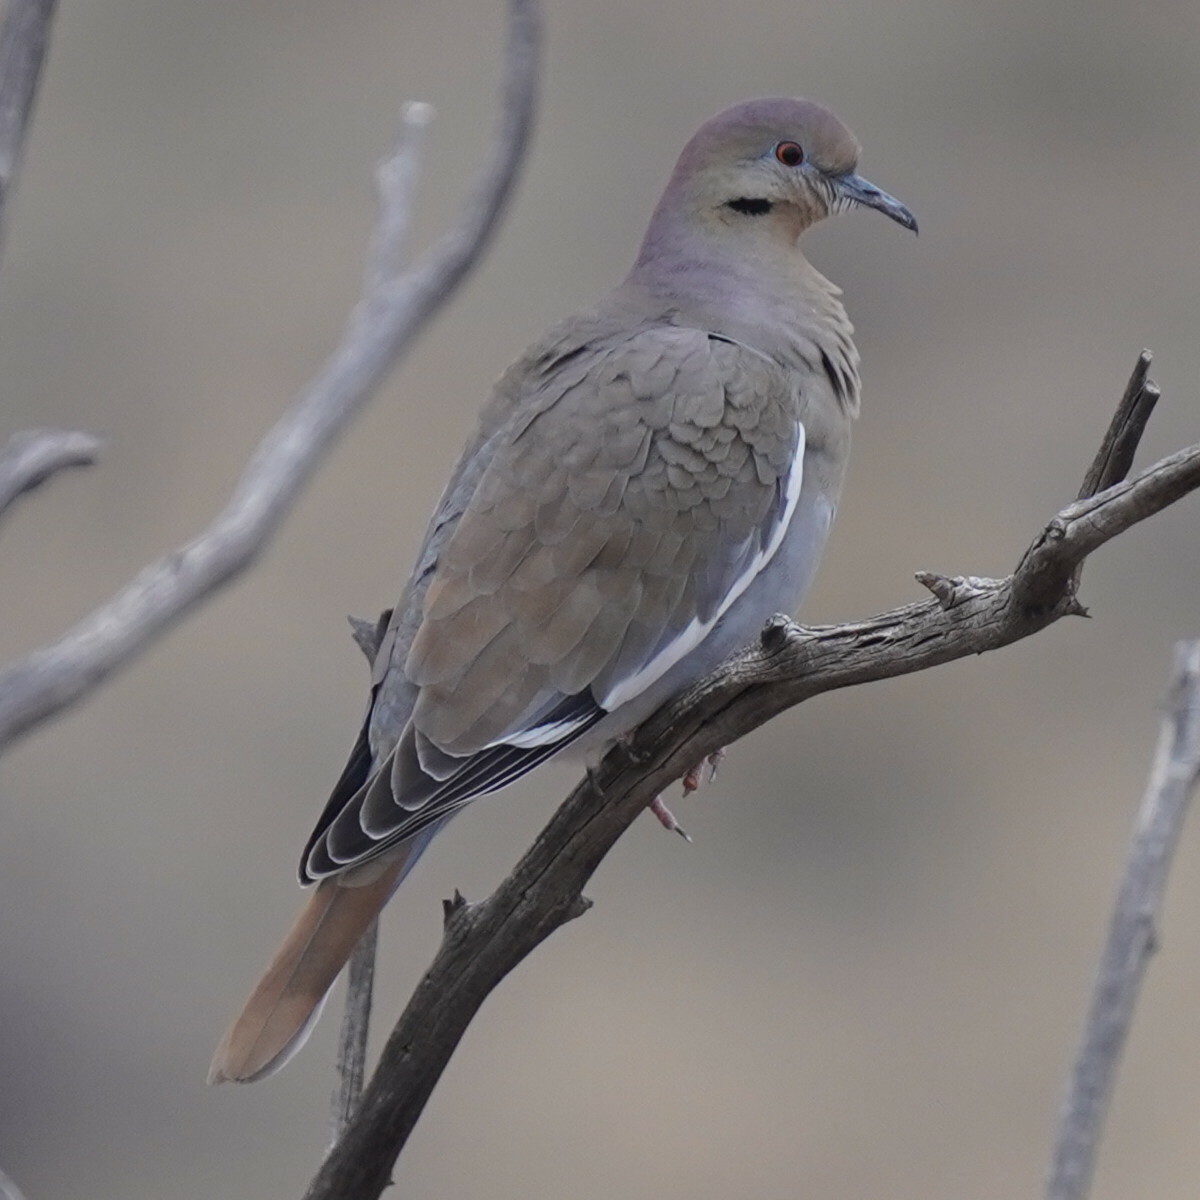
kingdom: Animalia
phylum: Chordata
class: Aves
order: Columbiformes
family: Columbidae
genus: Zenaida
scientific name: Zenaida asiatica
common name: White-winged dove
